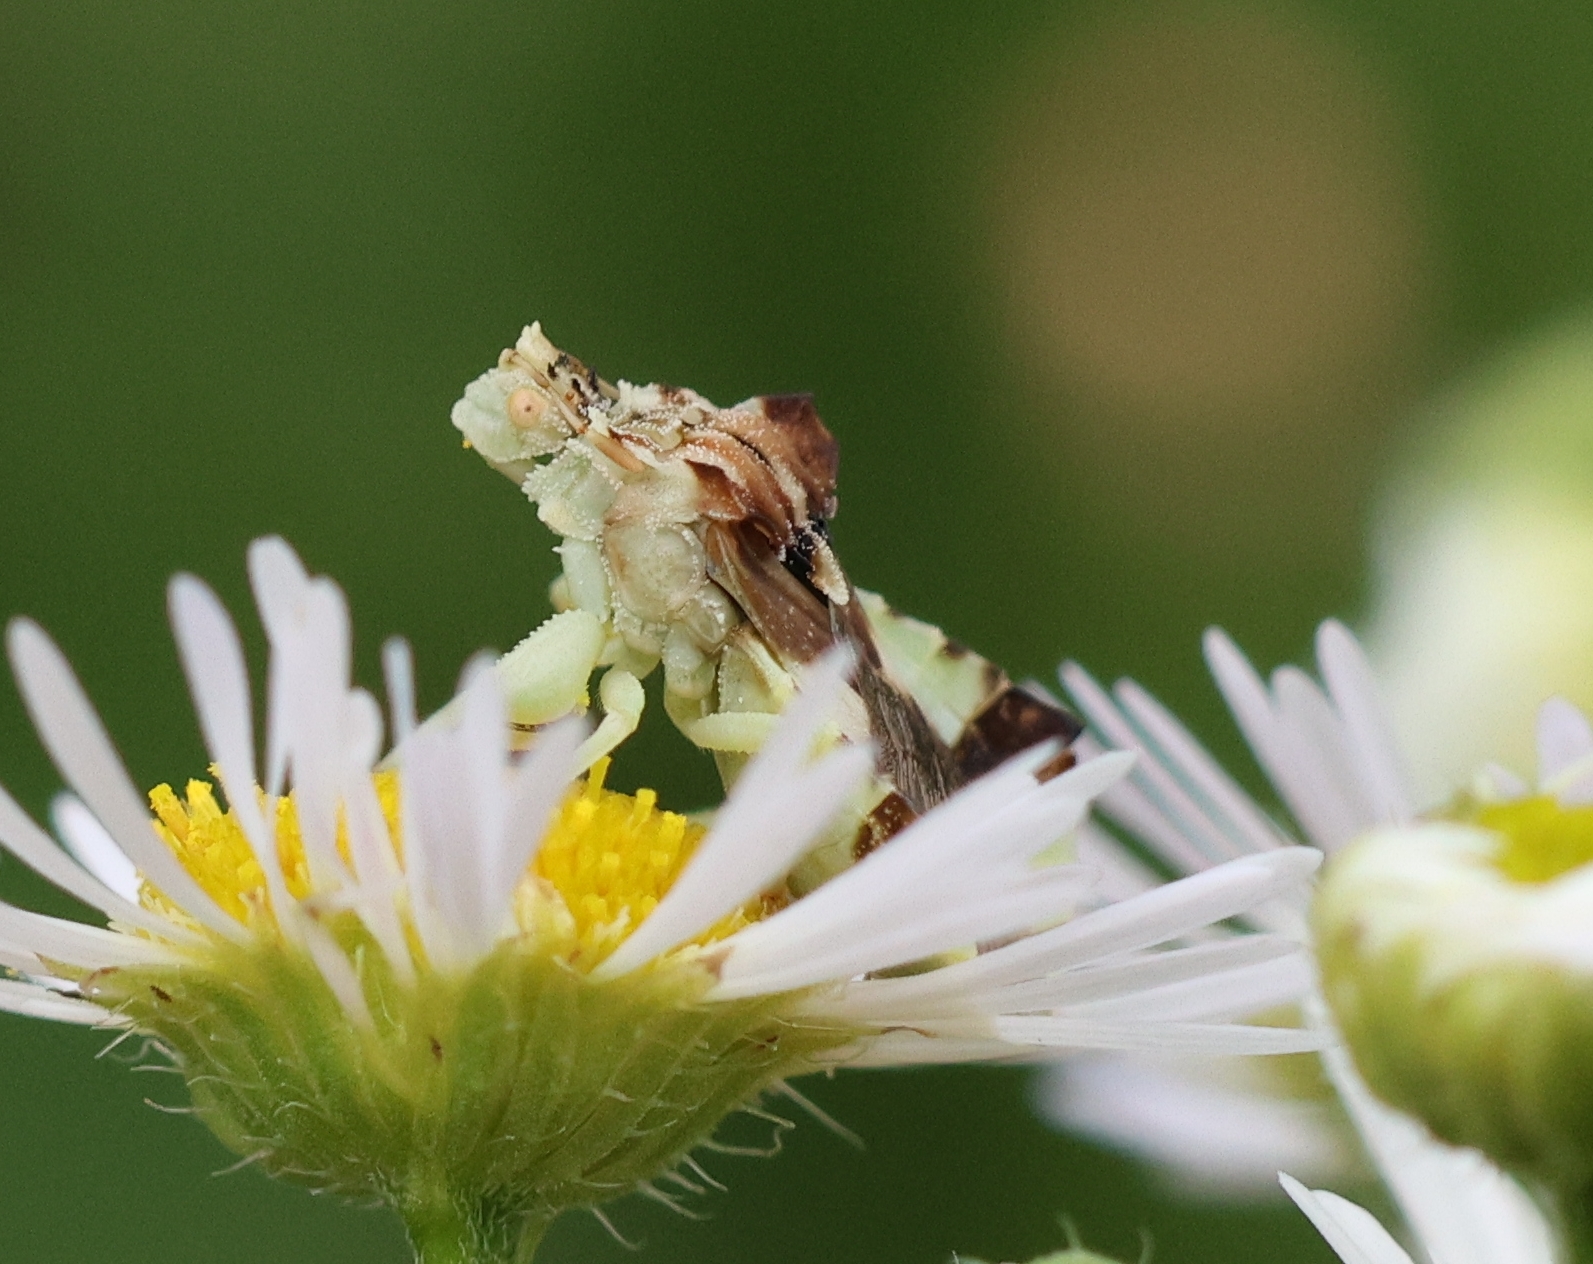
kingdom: Animalia
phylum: Arthropoda
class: Insecta
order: Hemiptera
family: Reduviidae
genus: Phymata
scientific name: Phymata americana
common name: Jagged ambush bug
